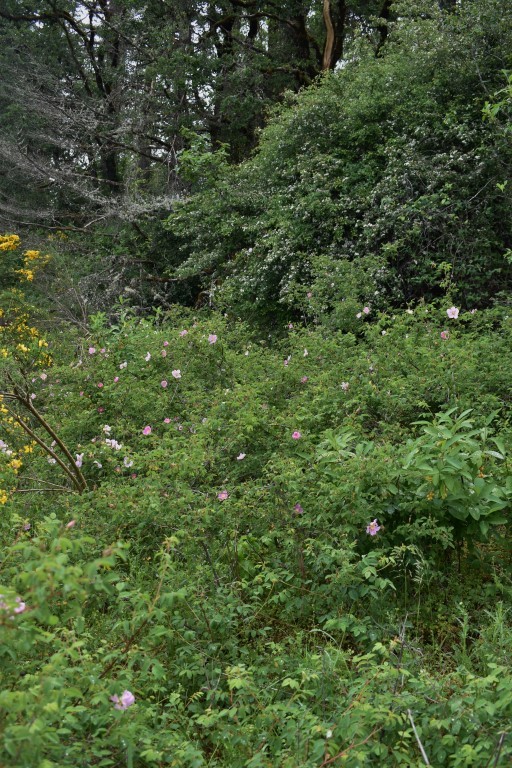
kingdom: Plantae
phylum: Tracheophyta
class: Magnoliopsida
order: Rosales
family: Rosaceae
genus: Rosa
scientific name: Rosa nutkana
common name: Nootka rose
